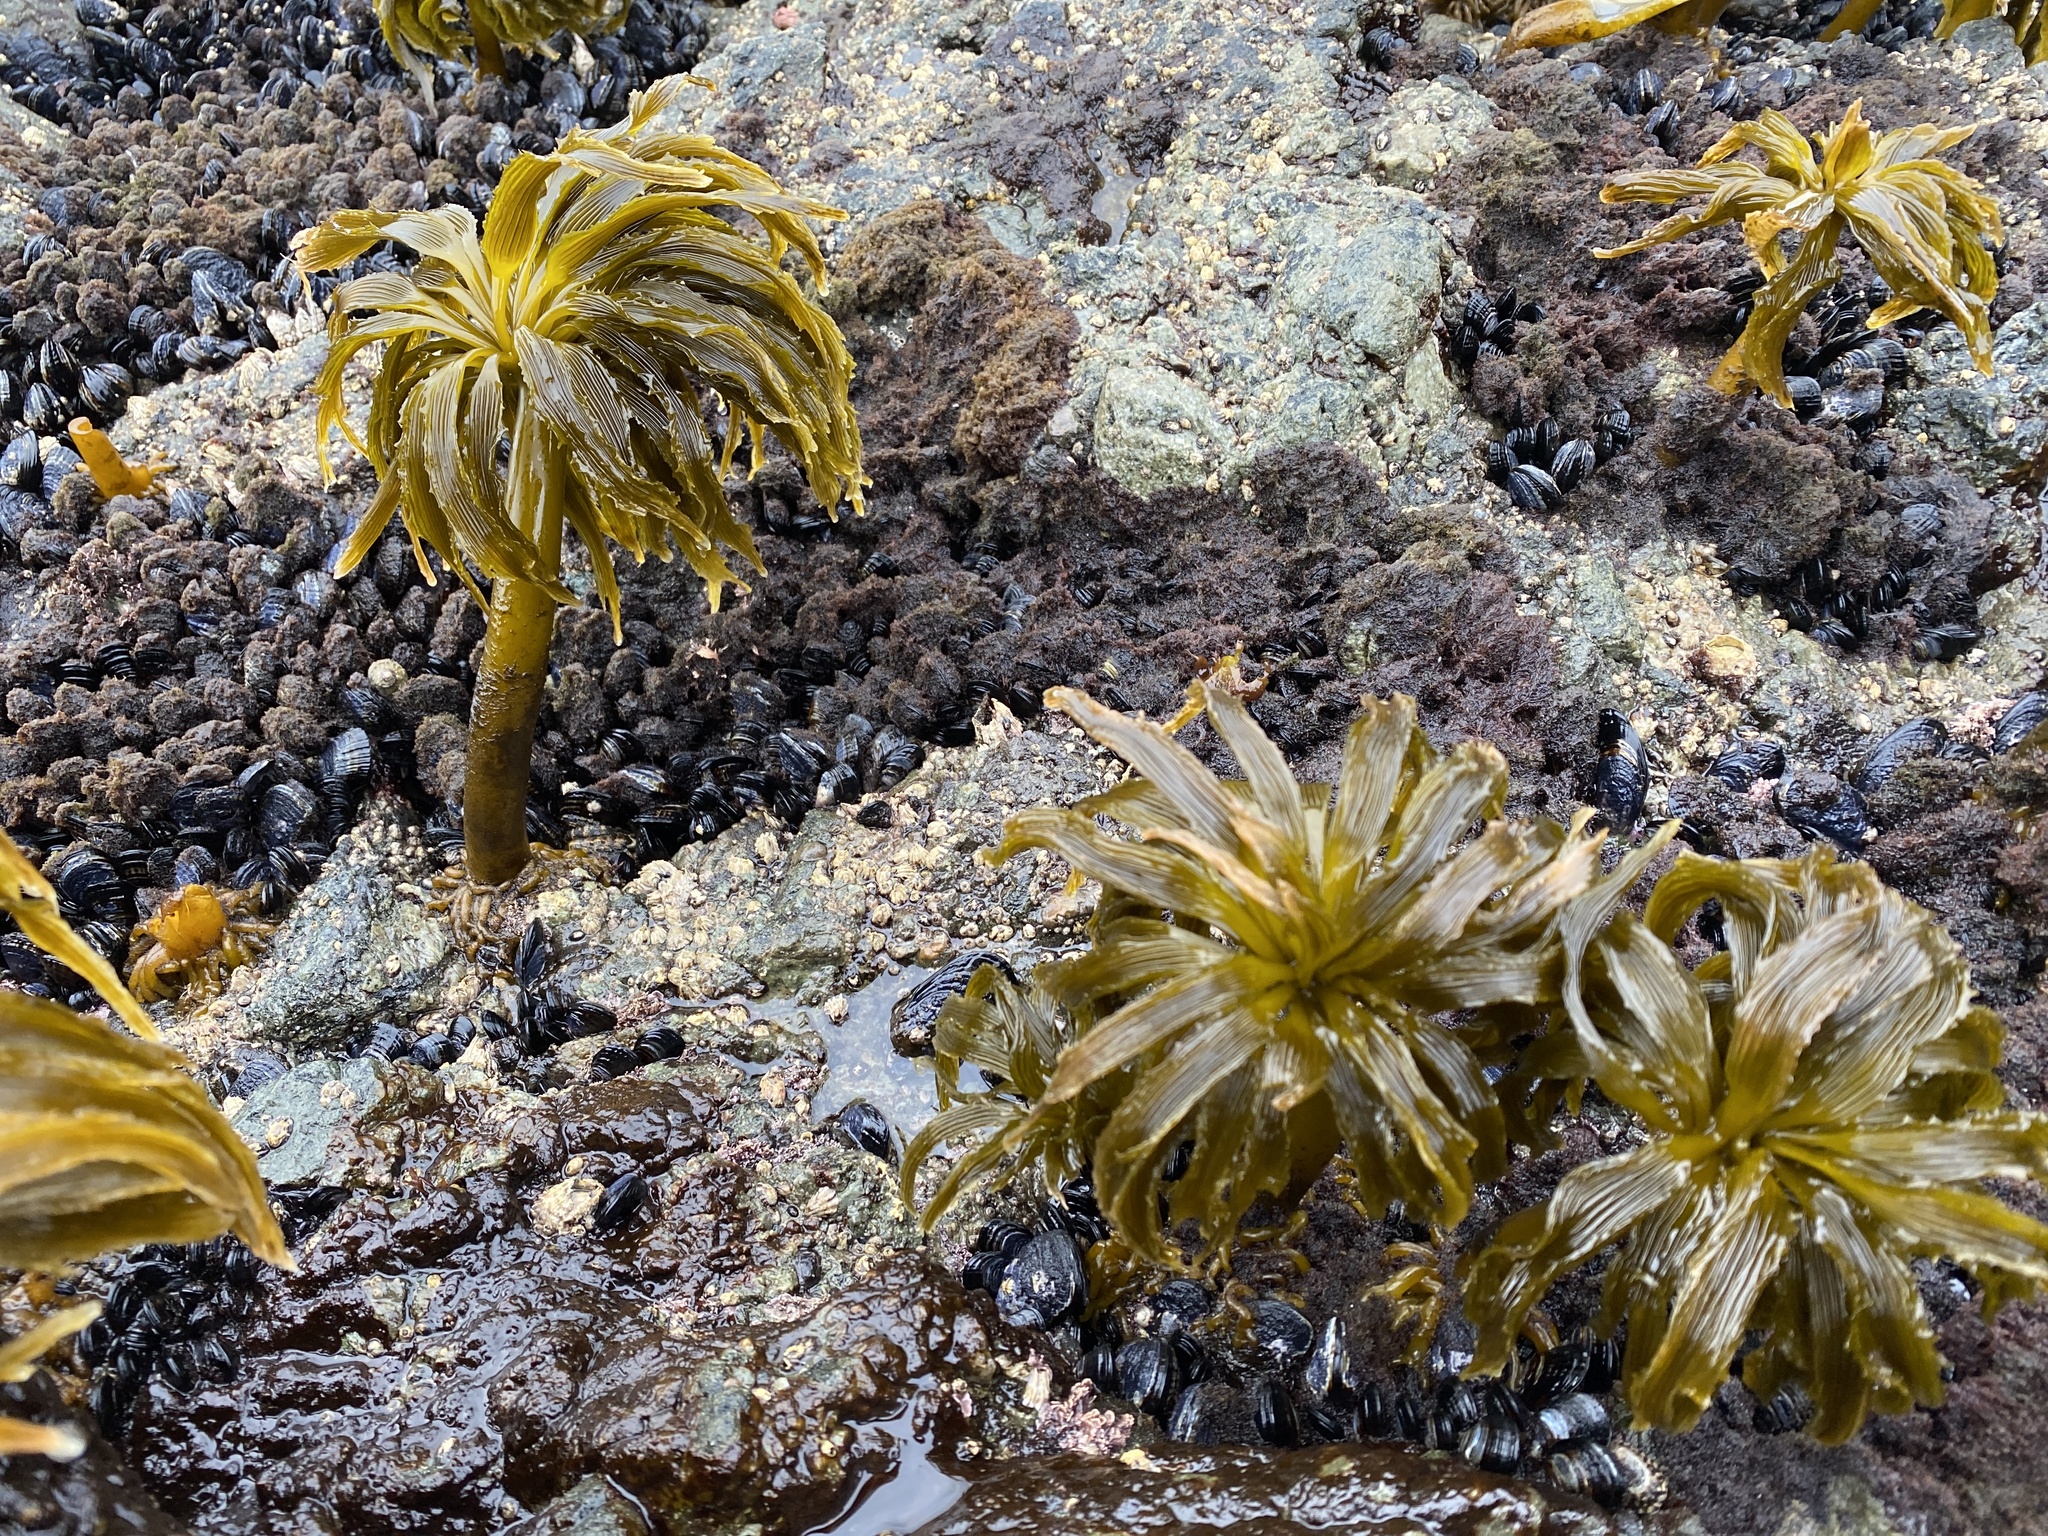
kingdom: Chromista
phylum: Ochrophyta
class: Phaeophyceae
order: Laminariales
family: Laminariaceae
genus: Postelsia
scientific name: Postelsia palmiformis
